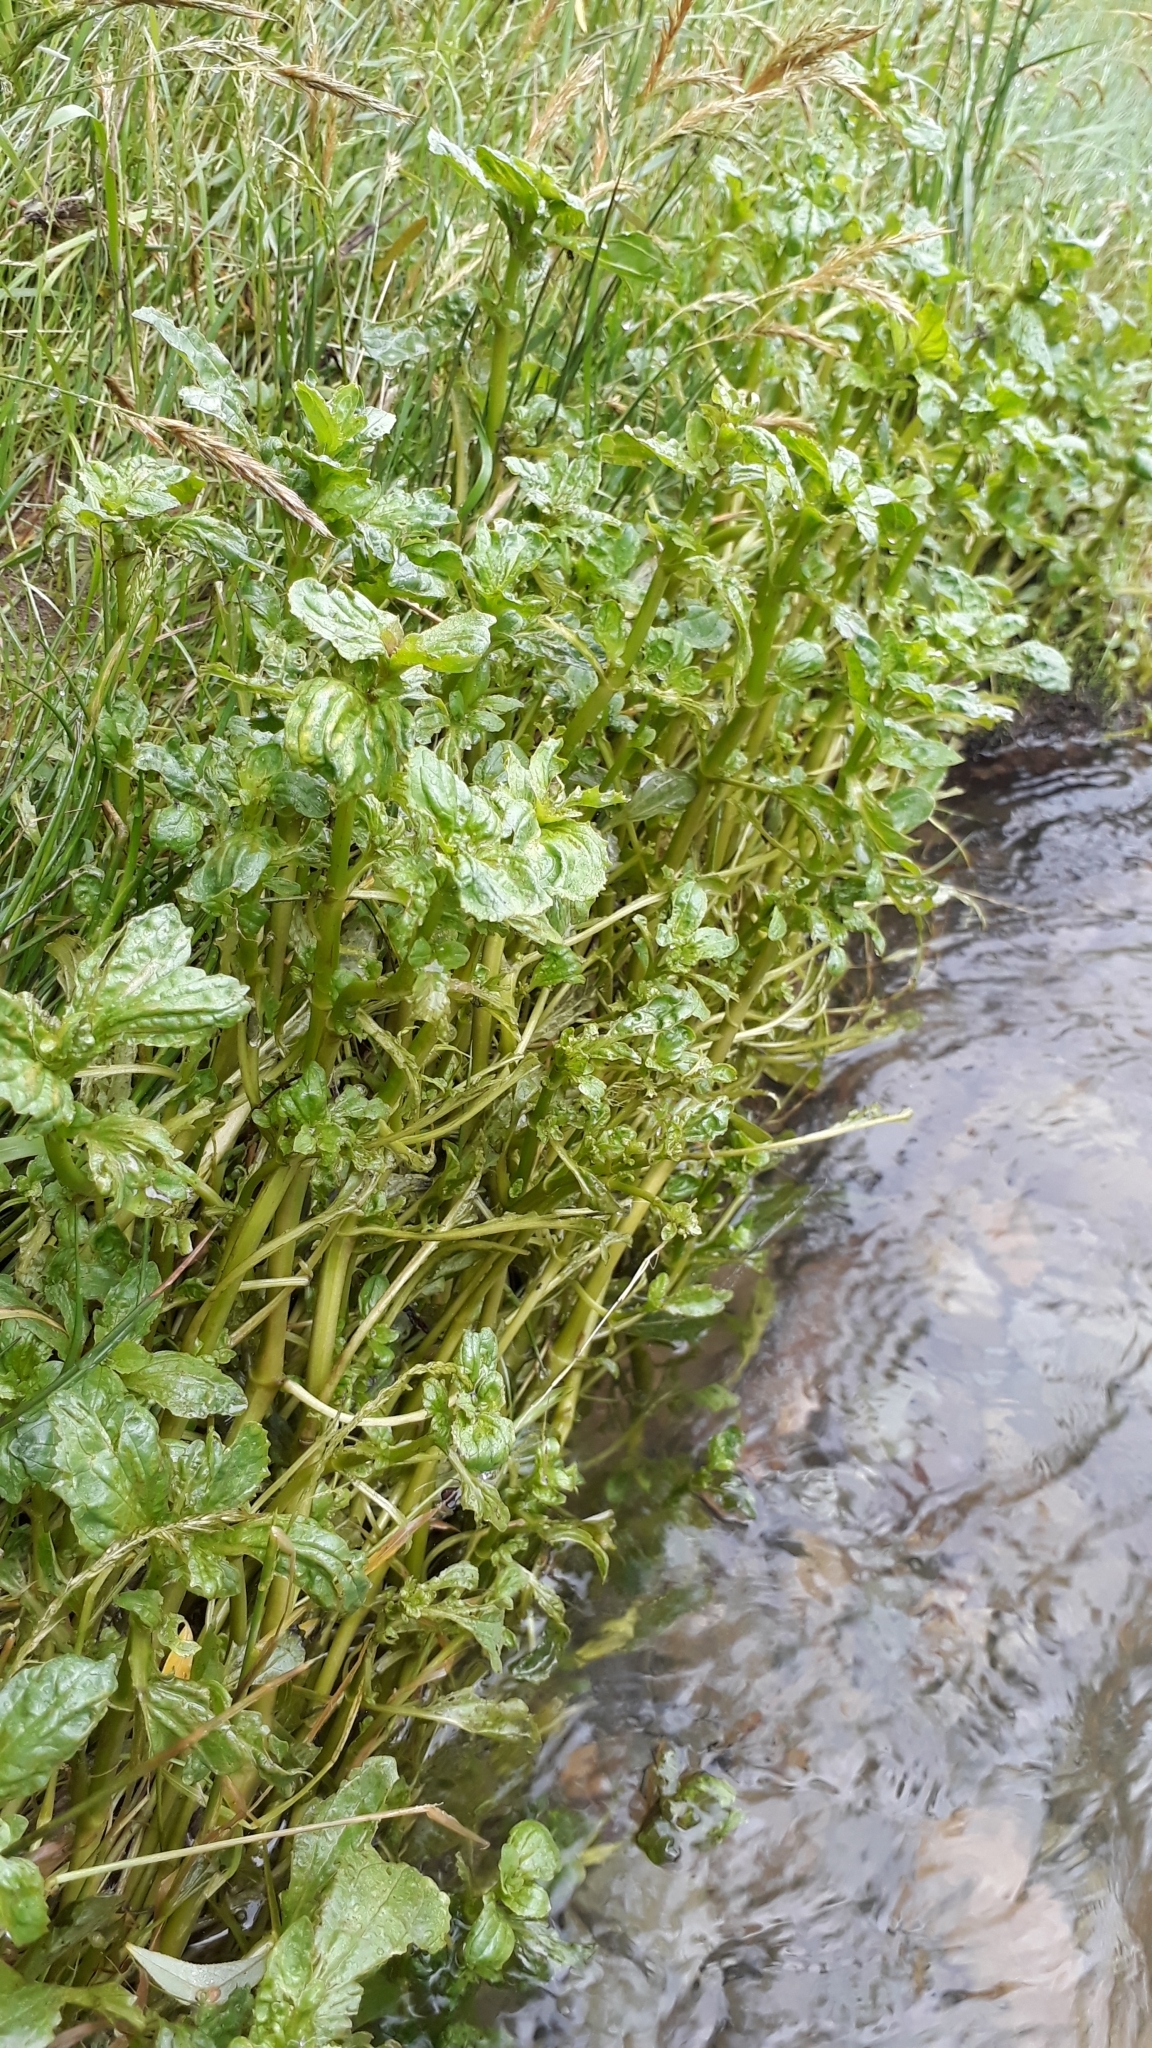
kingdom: Plantae
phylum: Tracheophyta
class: Magnoliopsida
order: Lamiales
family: Phrymaceae
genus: Erythranthe
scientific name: Erythranthe guttata
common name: Monkeyflower
